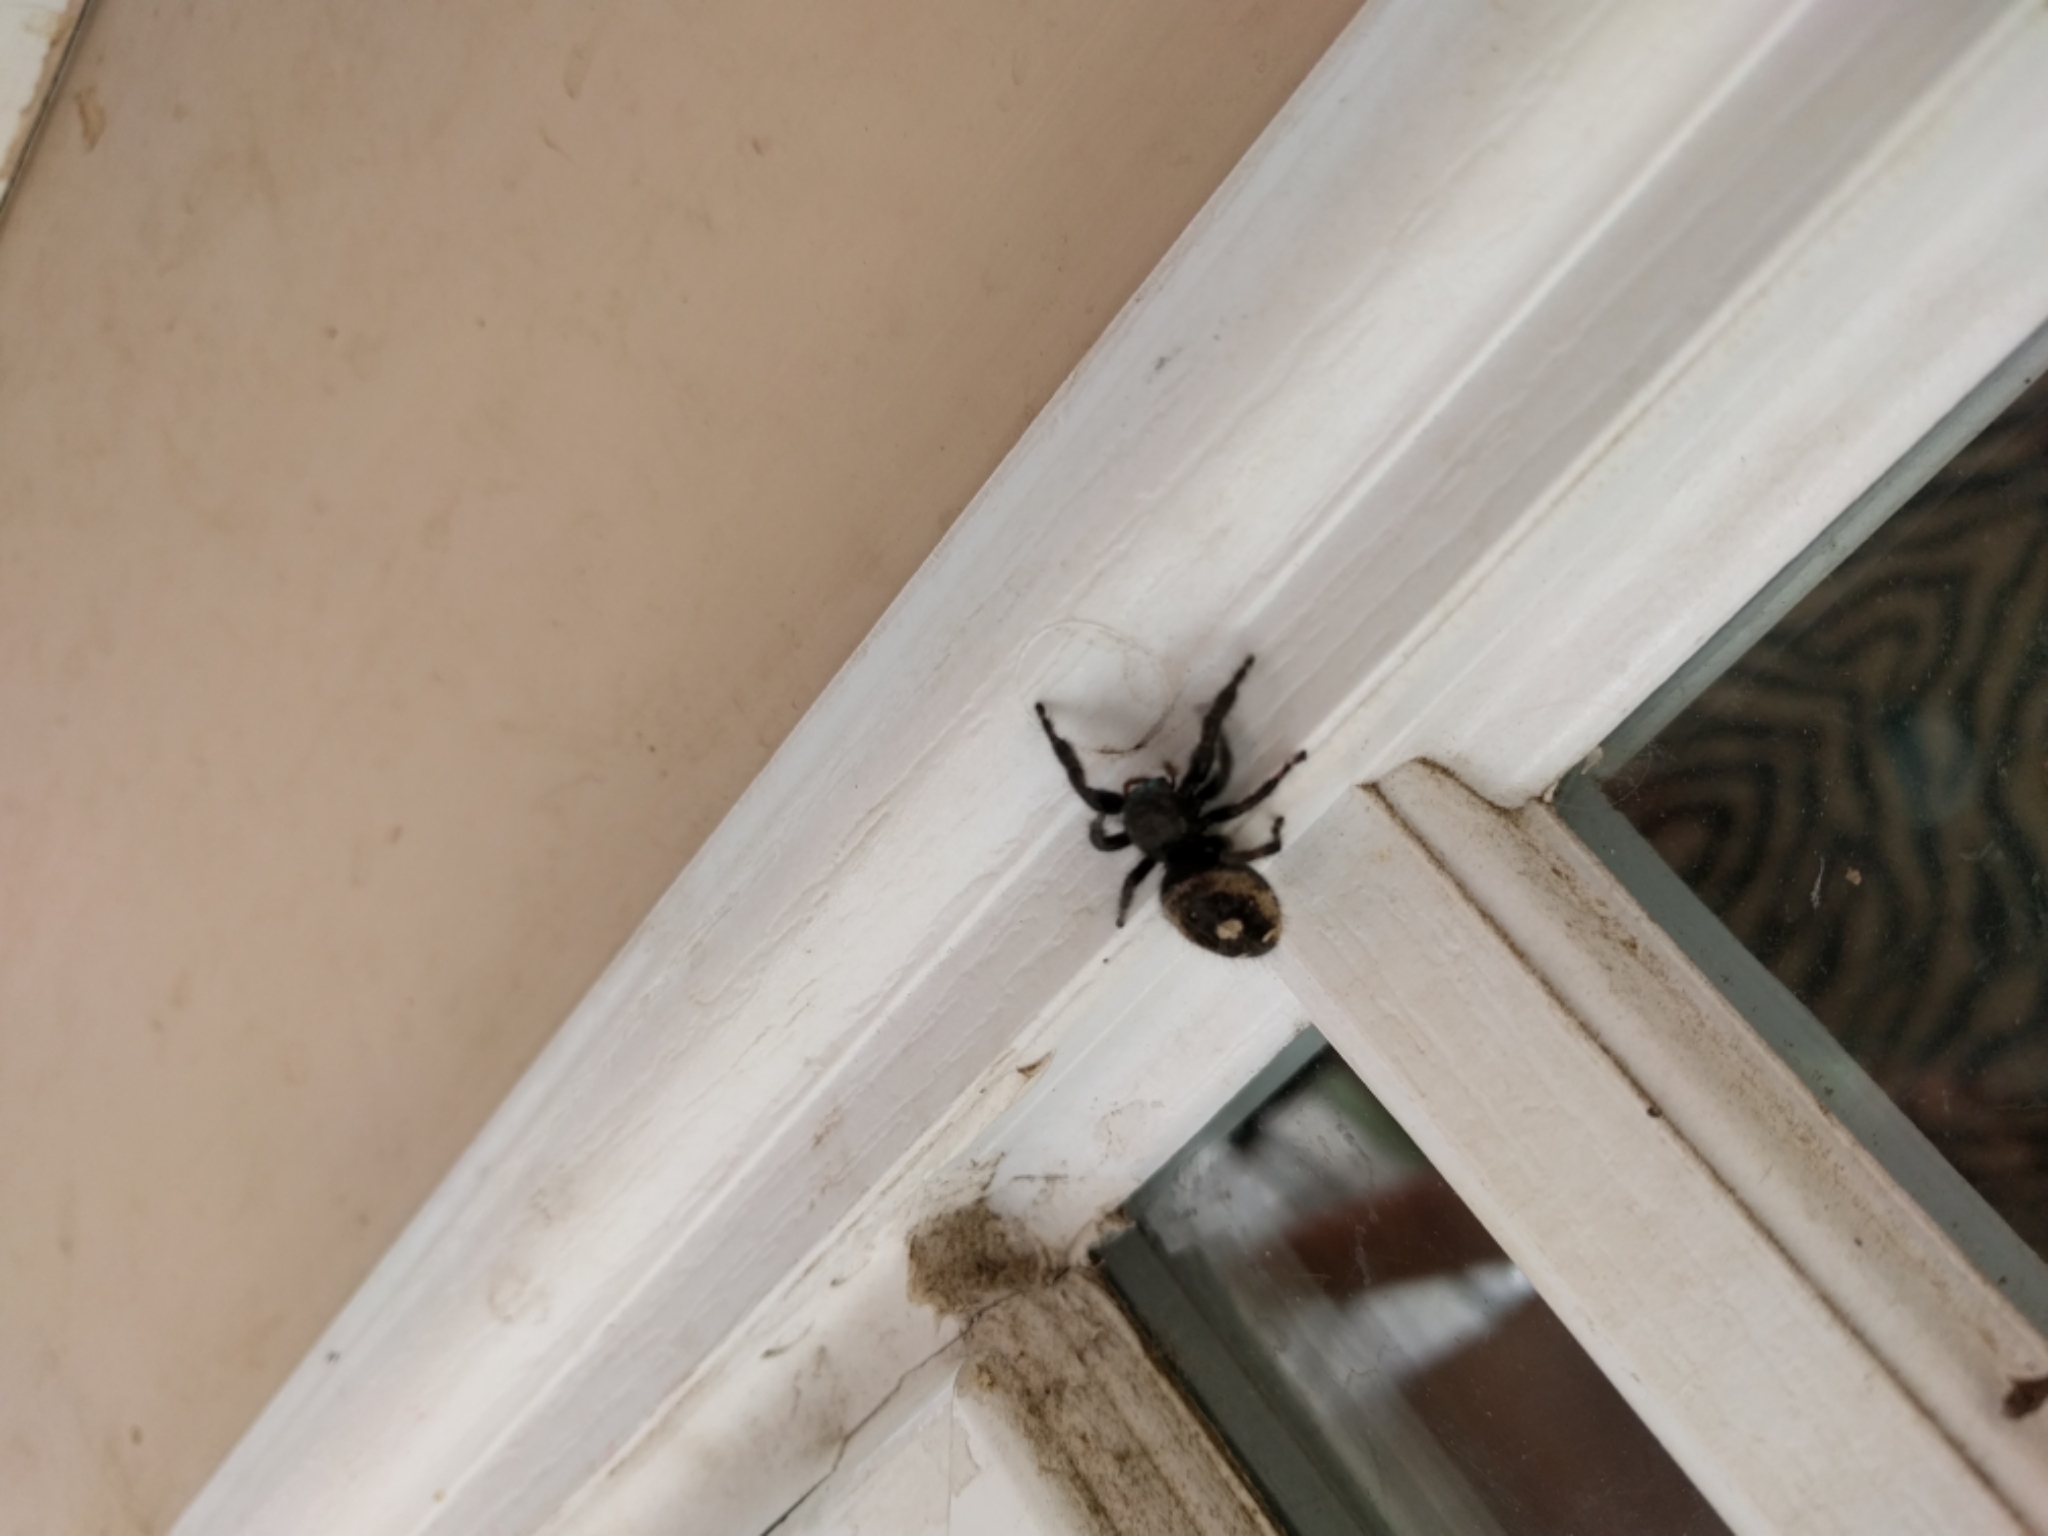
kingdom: Animalia
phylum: Arthropoda
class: Arachnida
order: Araneae
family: Salticidae
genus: Phidippus
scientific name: Phidippus audax
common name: Bold jumper
